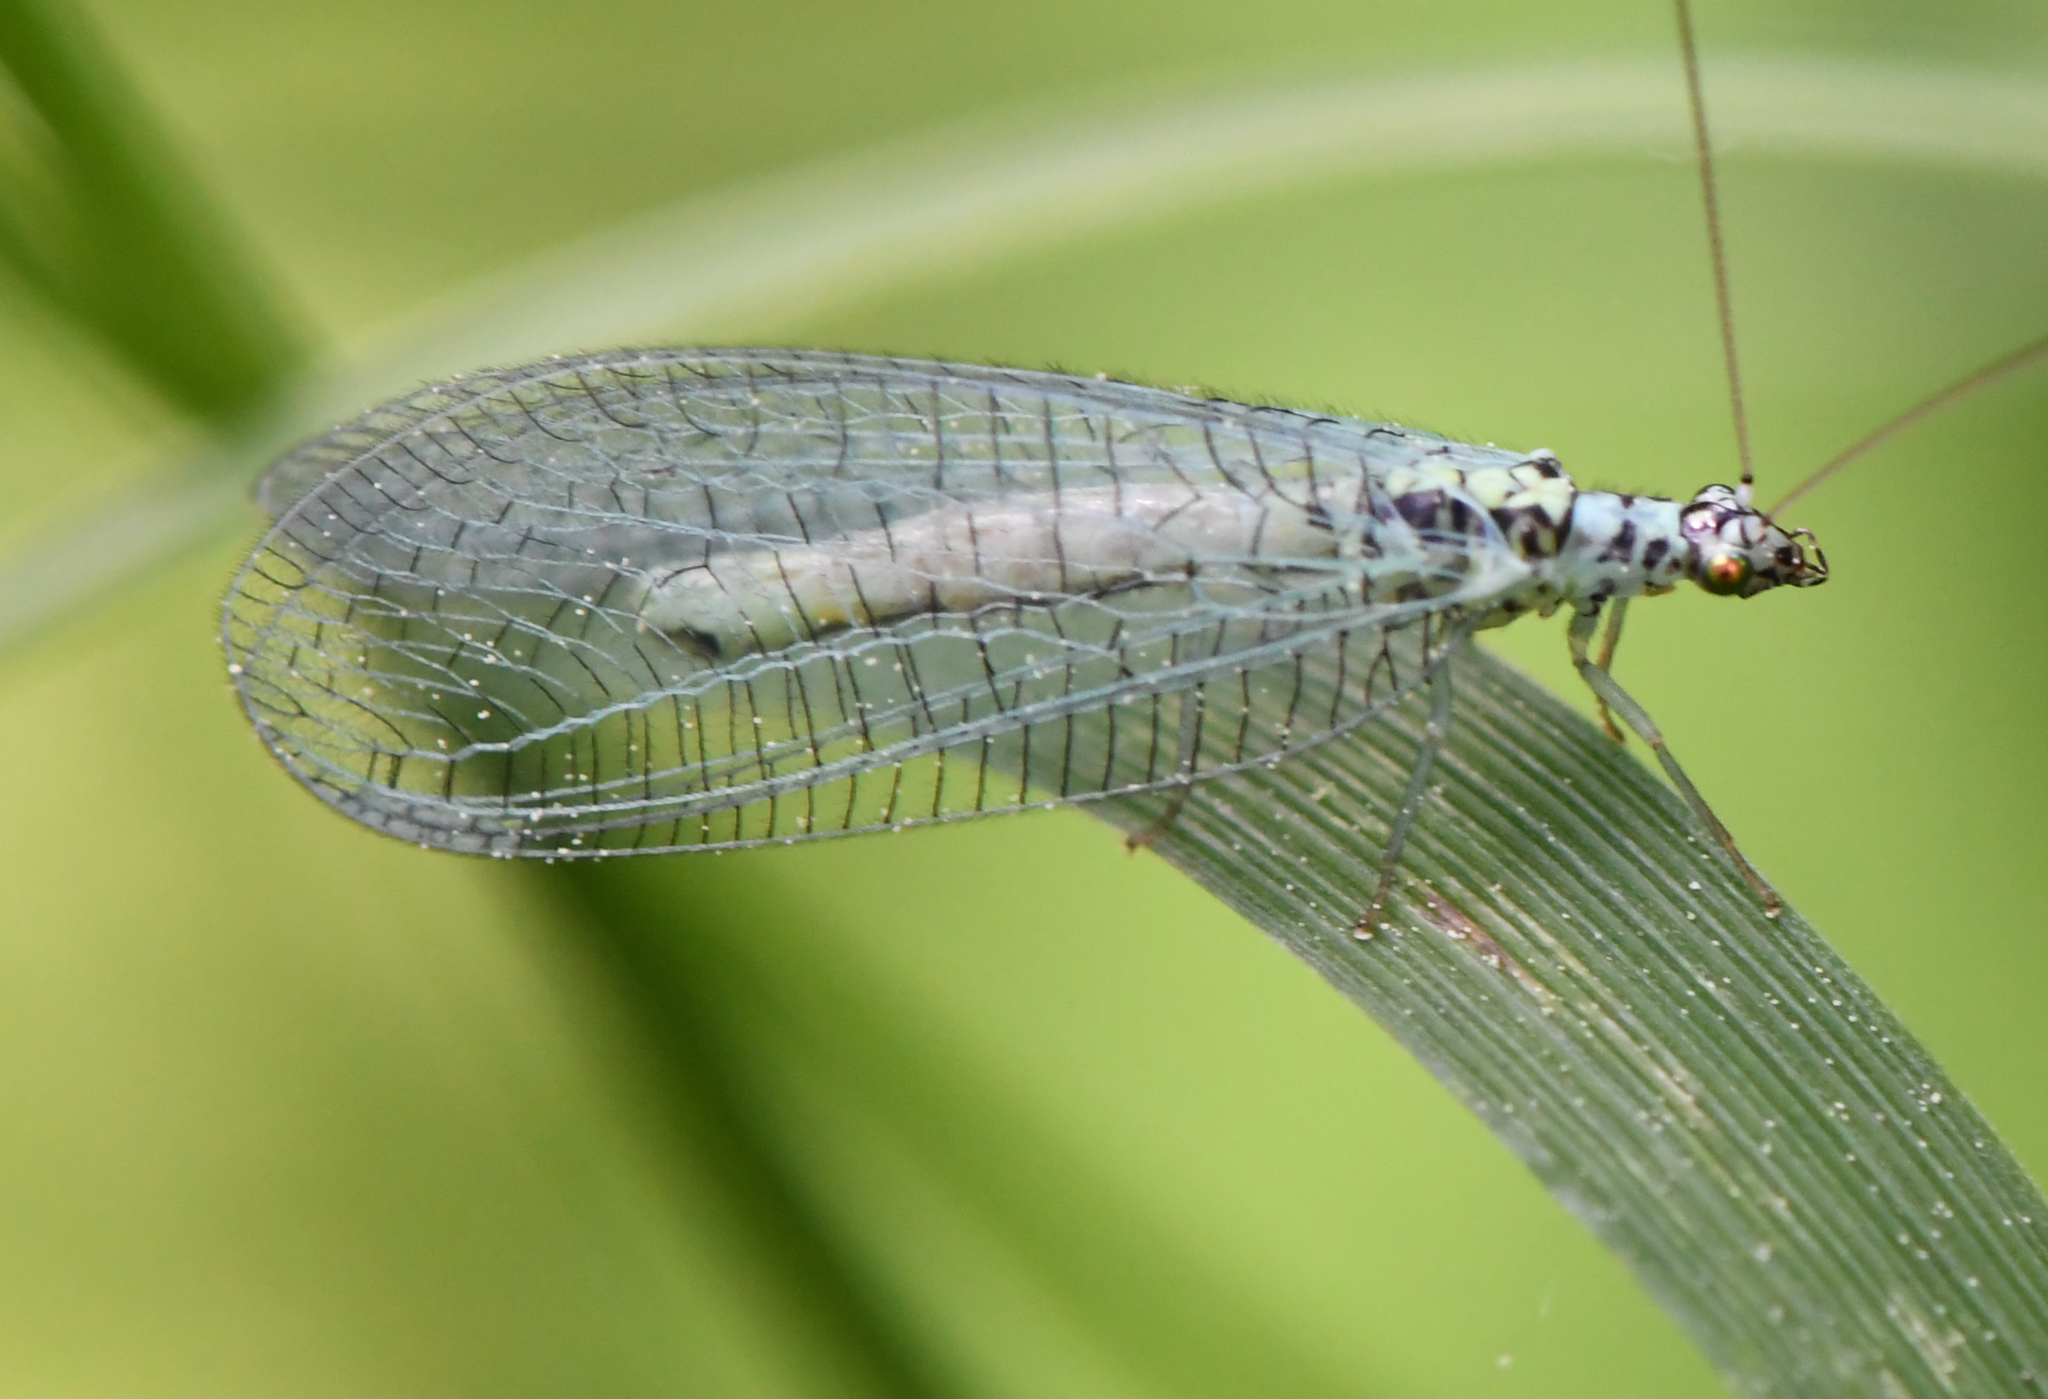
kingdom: Animalia
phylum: Arthropoda
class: Insecta
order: Neuroptera
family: Chrysopidae
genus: Chrysopa
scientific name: Chrysopa perla
